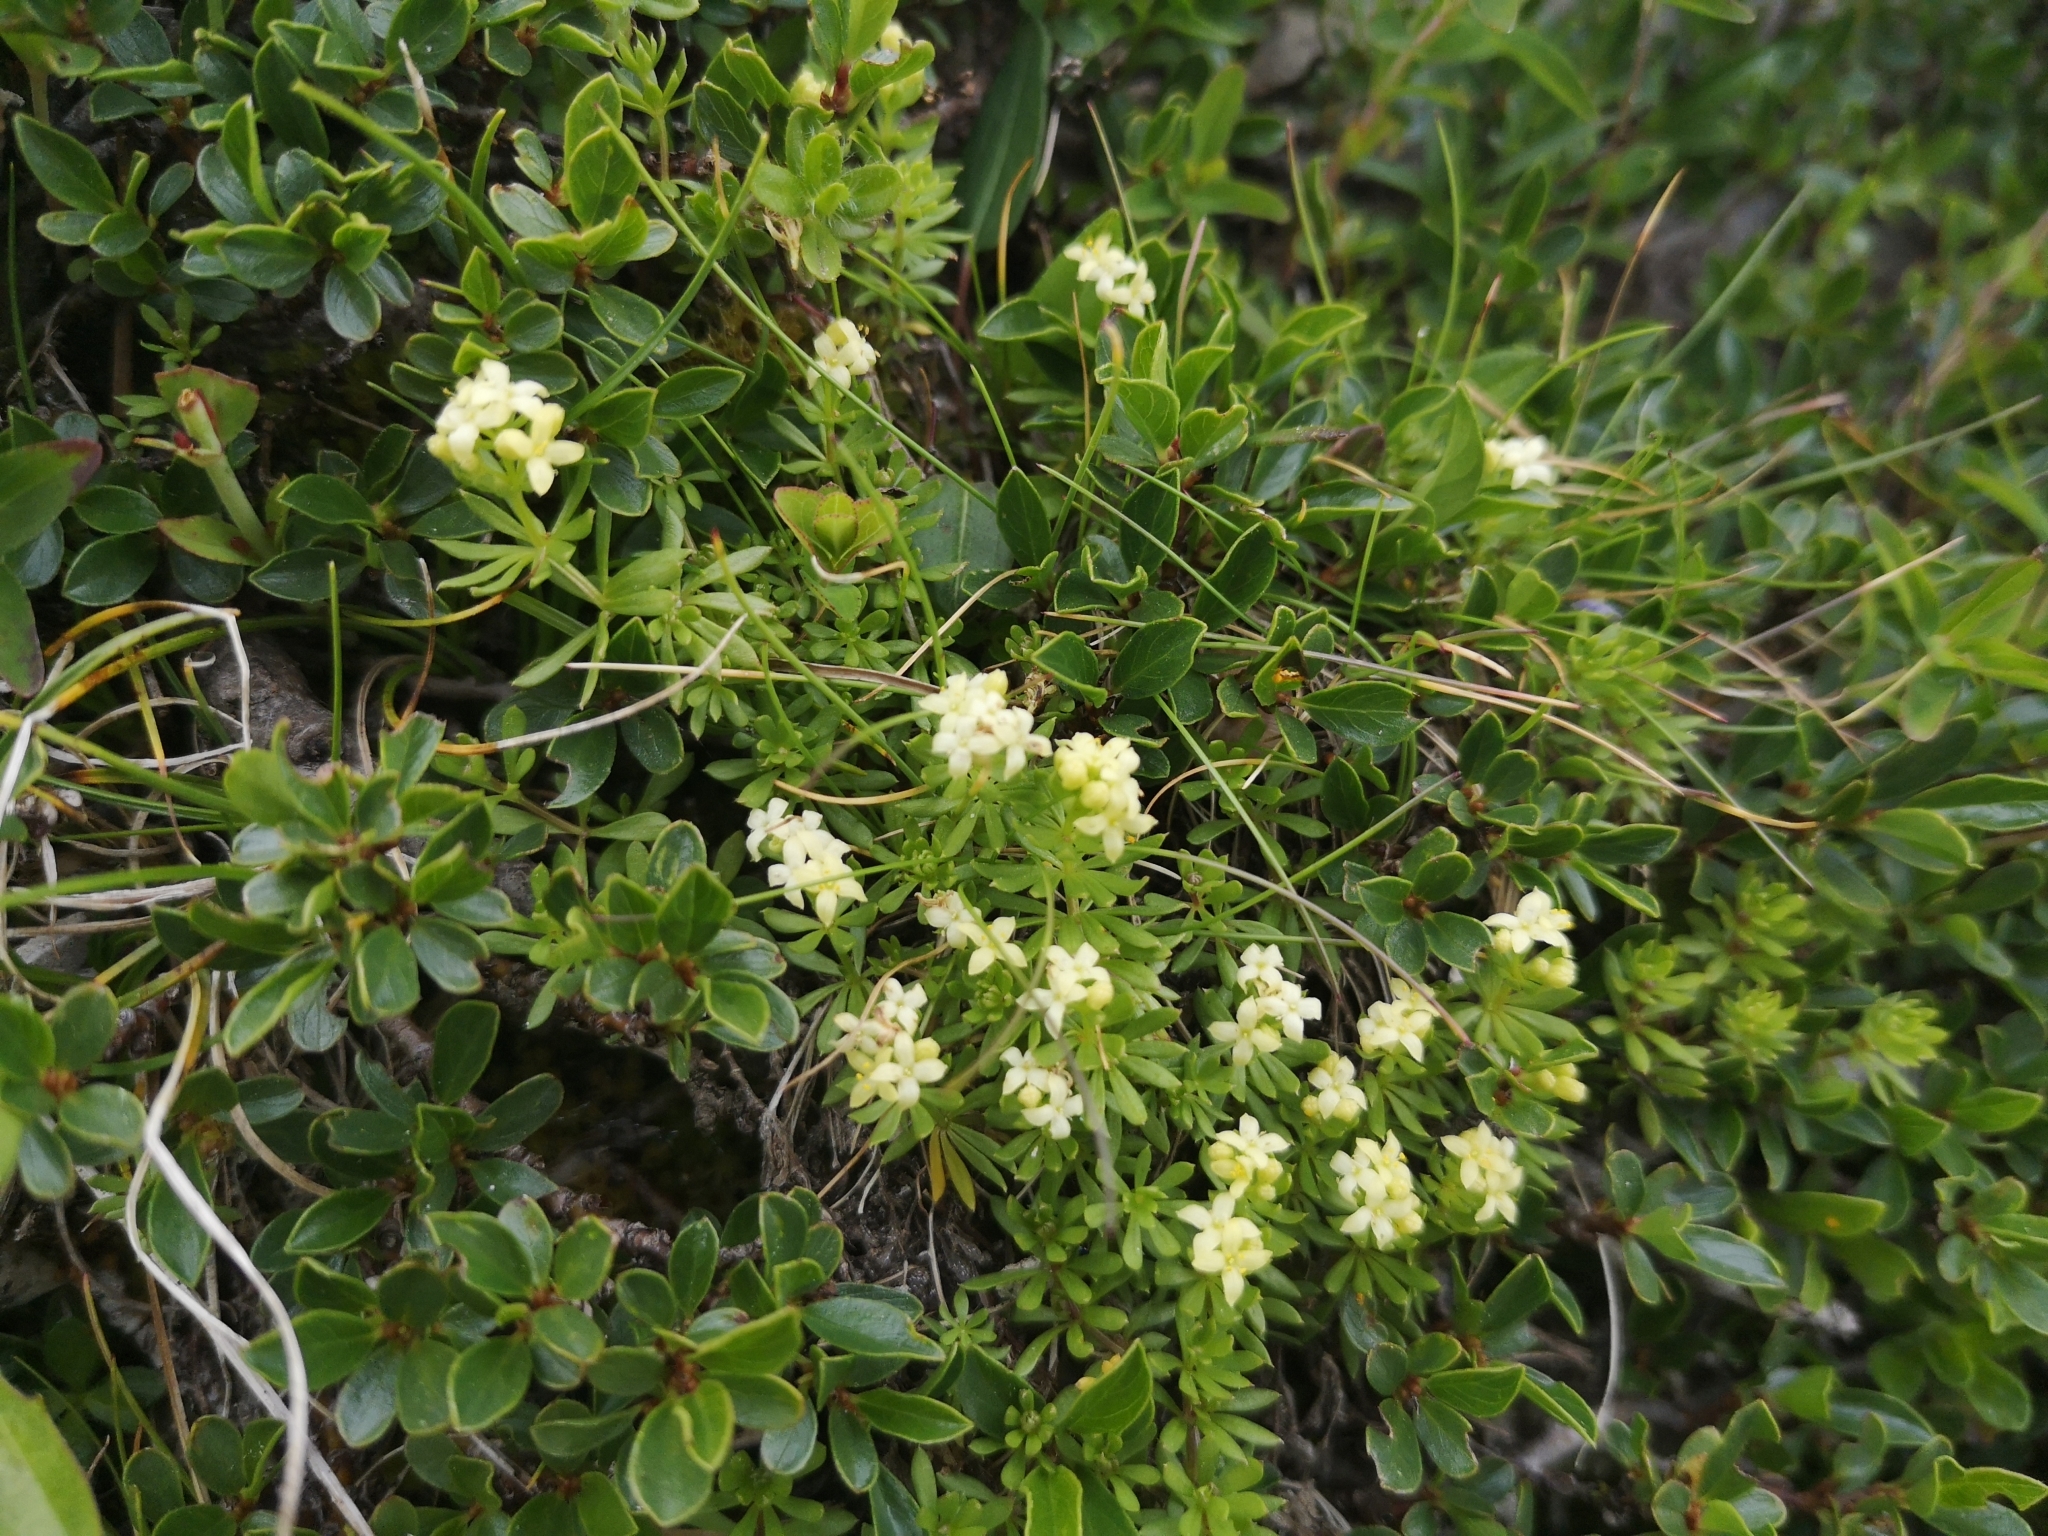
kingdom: Plantae
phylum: Tracheophyta
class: Magnoliopsida
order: Gentianales
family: Rubiaceae
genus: Galium
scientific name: Galium magellense
